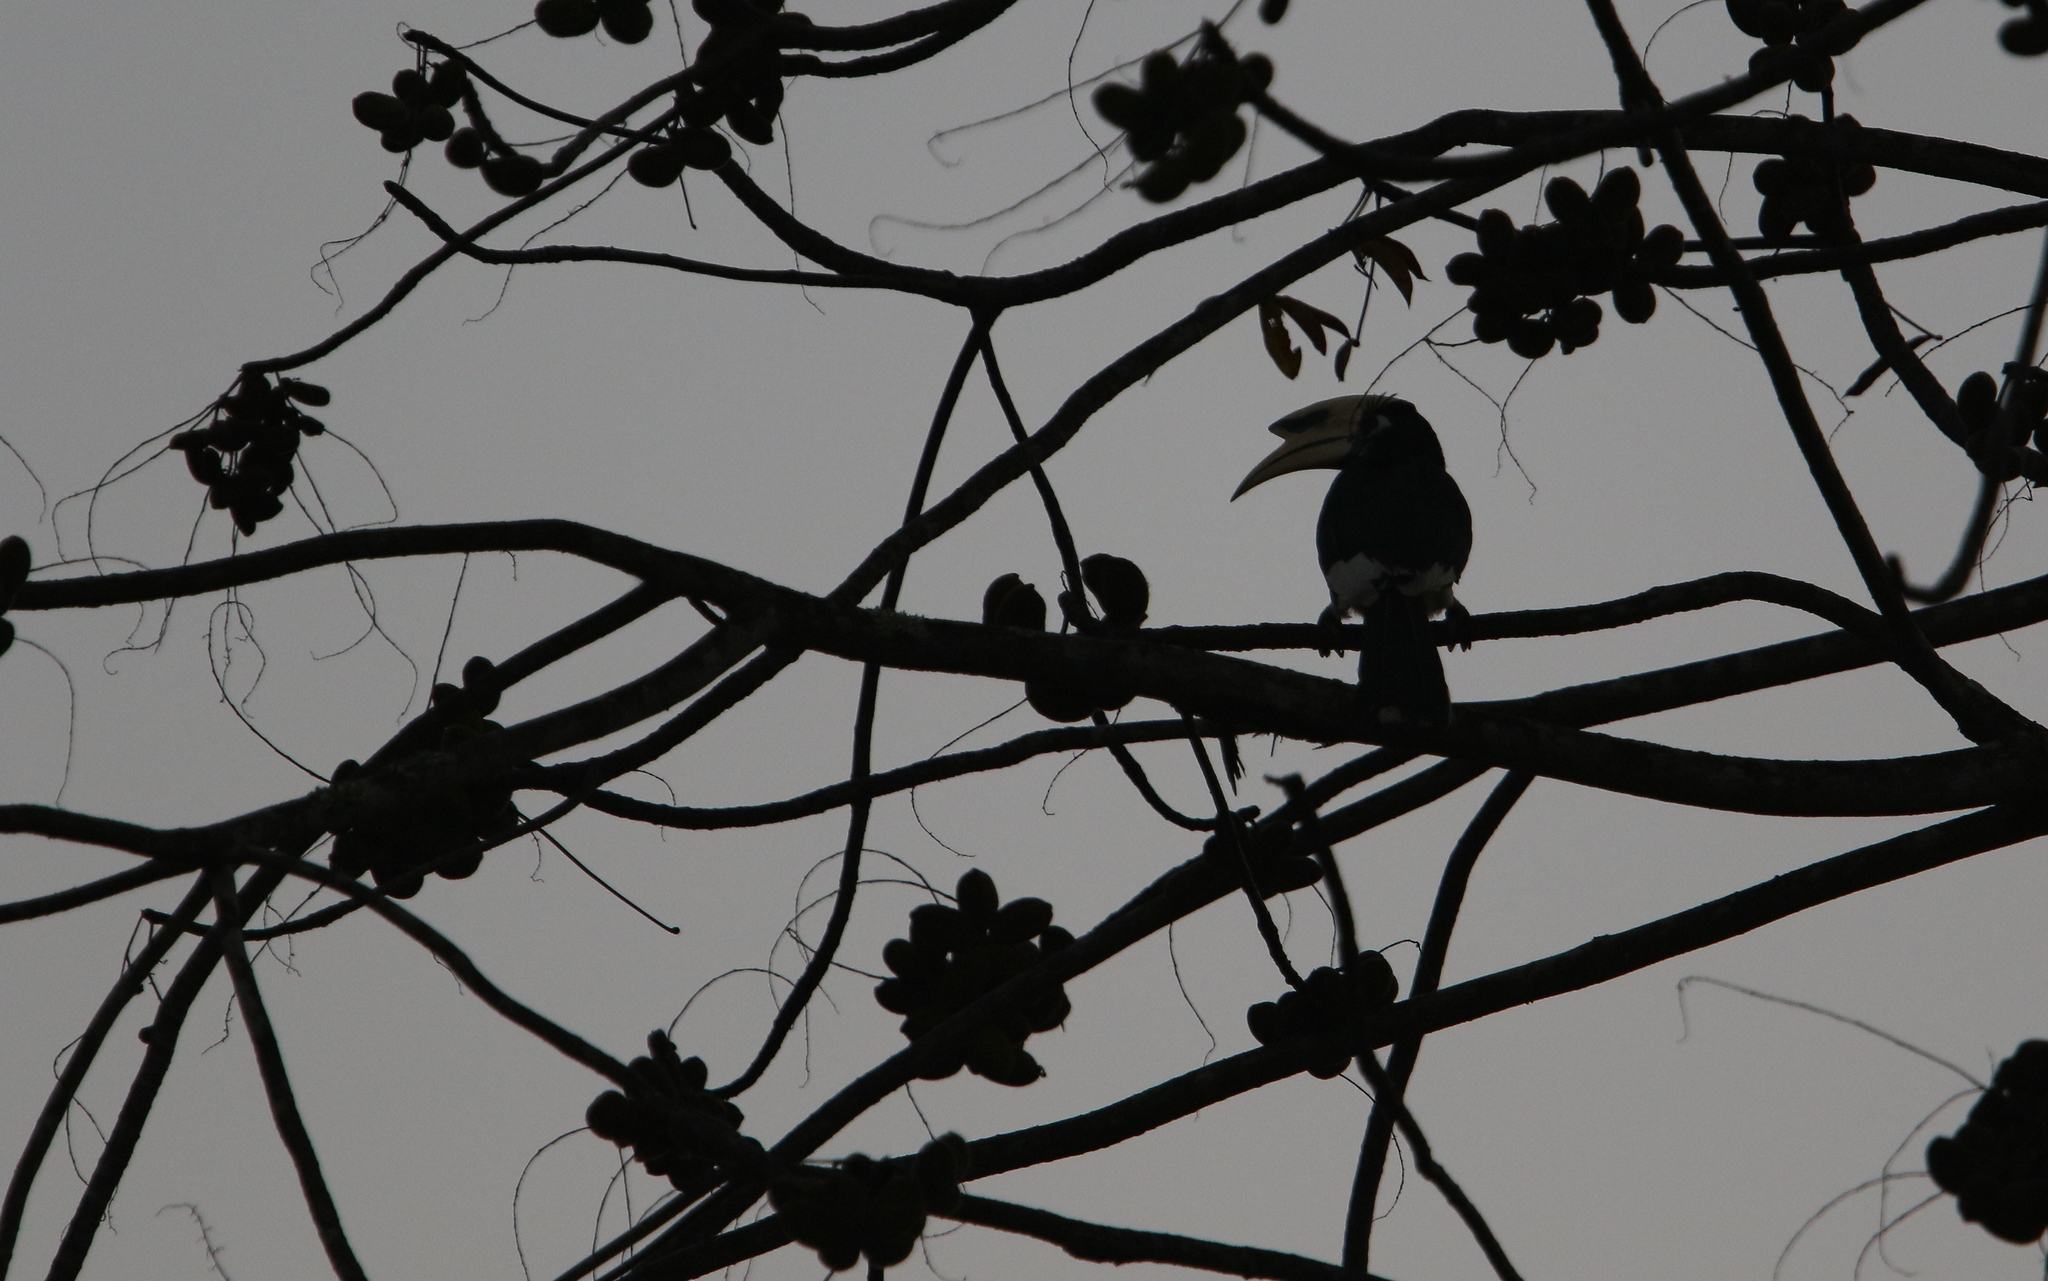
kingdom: Animalia
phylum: Chordata
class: Aves
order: Bucerotiformes
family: Bucerotidae
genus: Anthracoceros
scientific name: Anthracoceros albirostris
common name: Oriental pied-hornbill
